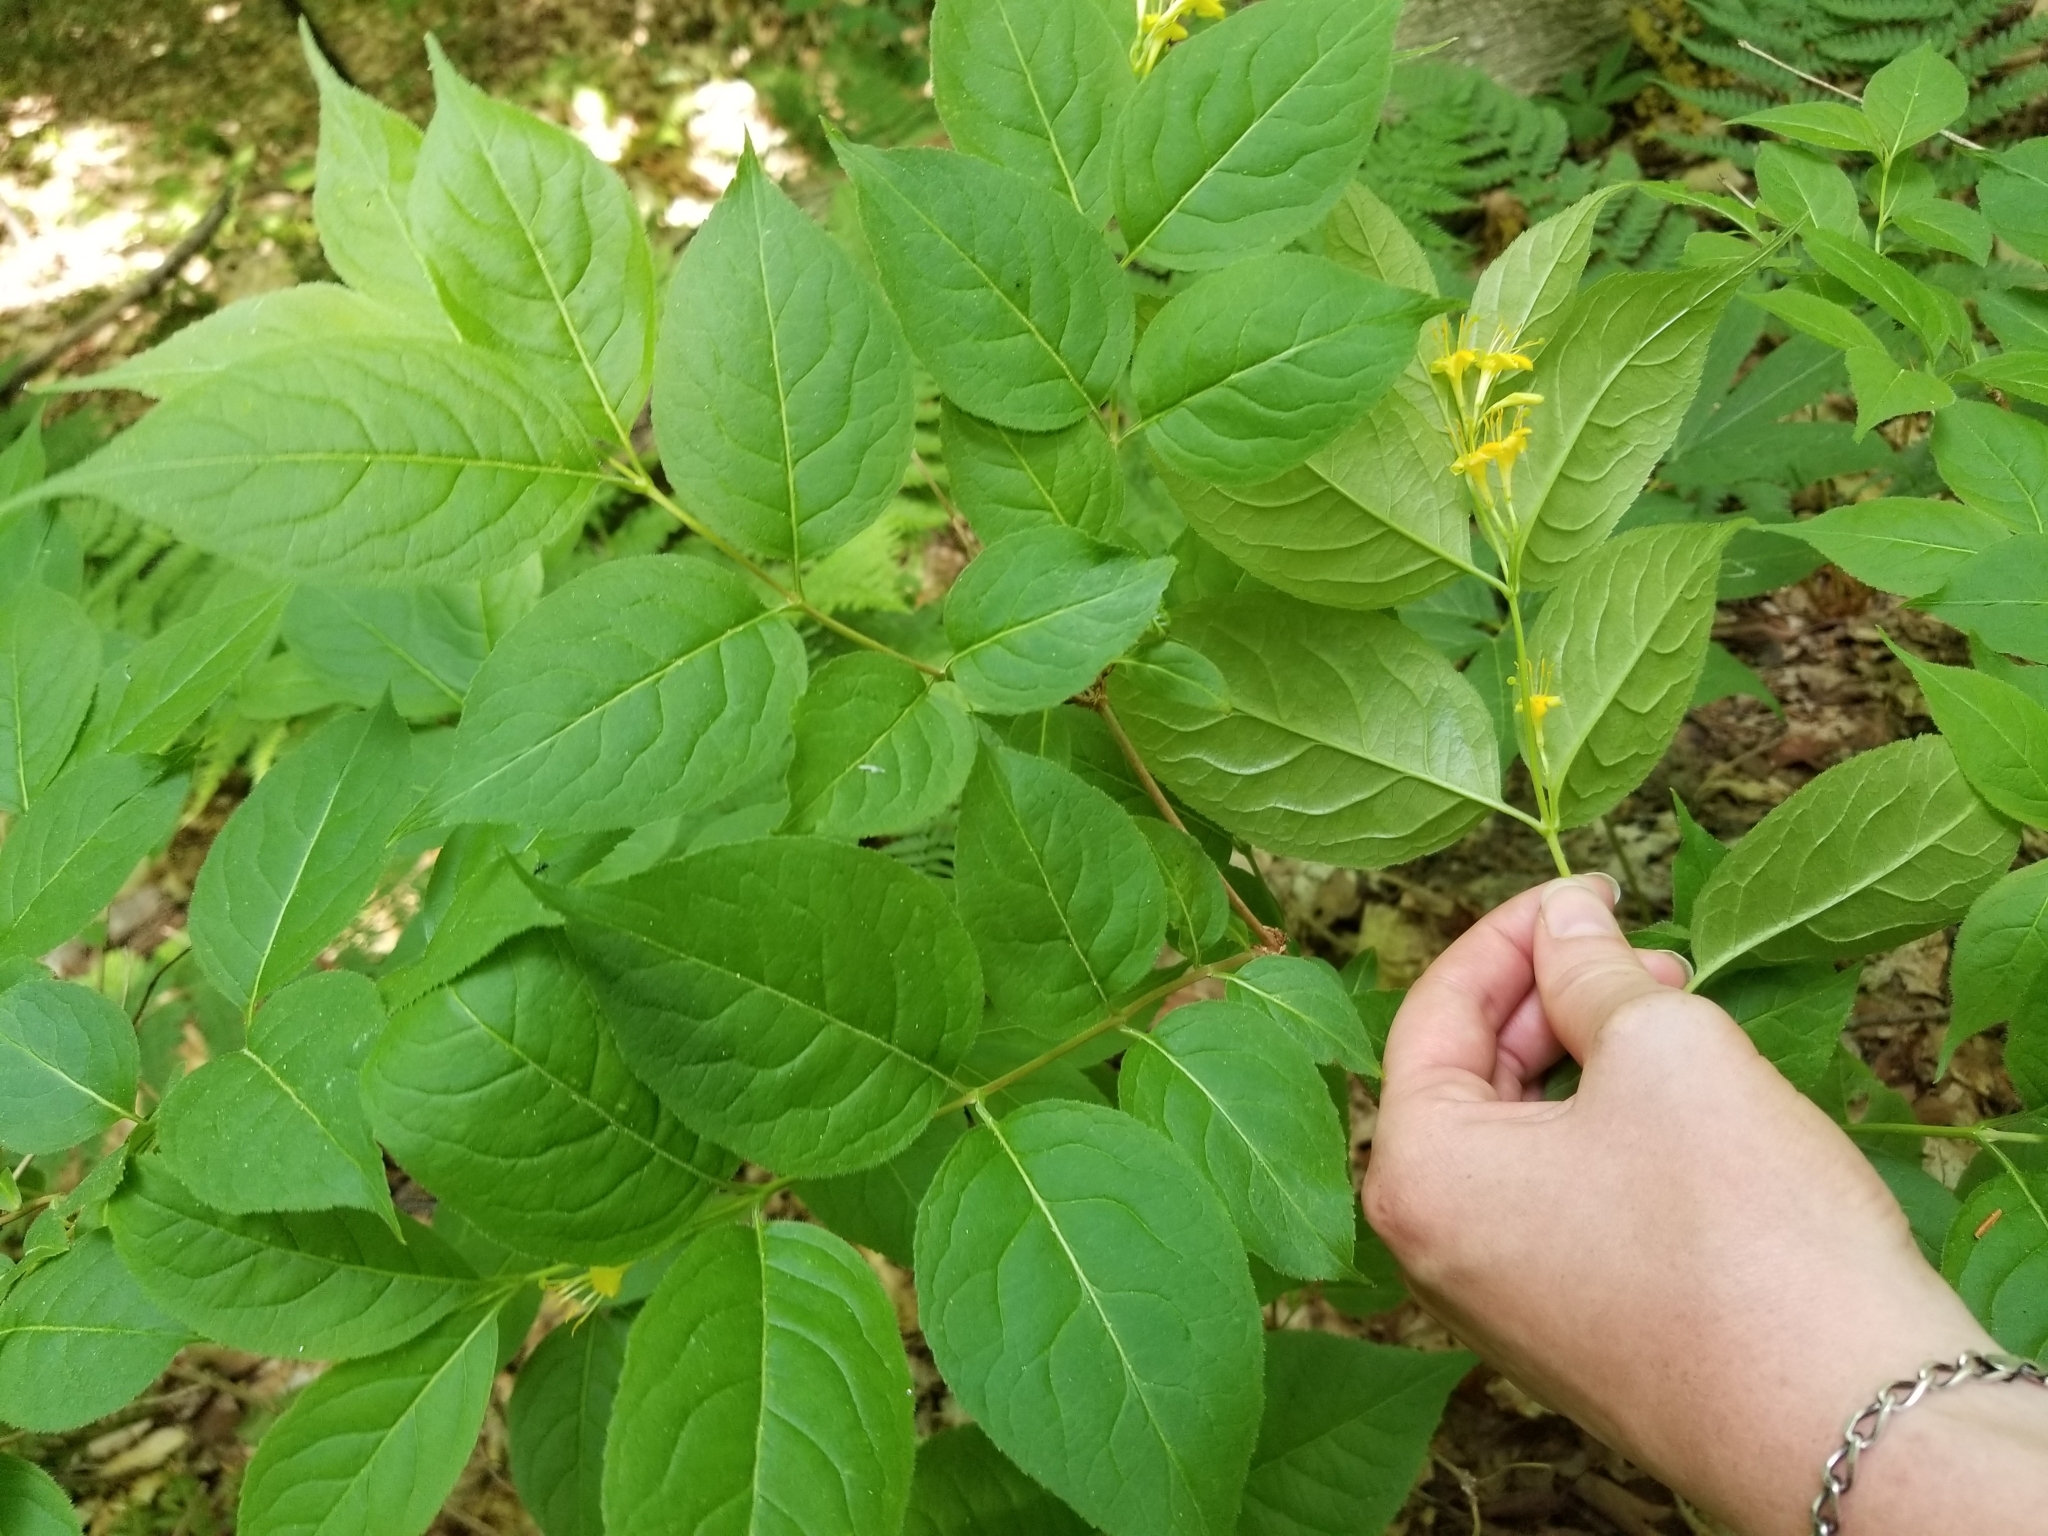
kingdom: Plantae
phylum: Tracheophyta
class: Magnoliopsida
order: Dipsacales
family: Caprifoliaceae
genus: Diervilla
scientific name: Diervilla lonicera
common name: Bush-honeysuckle
